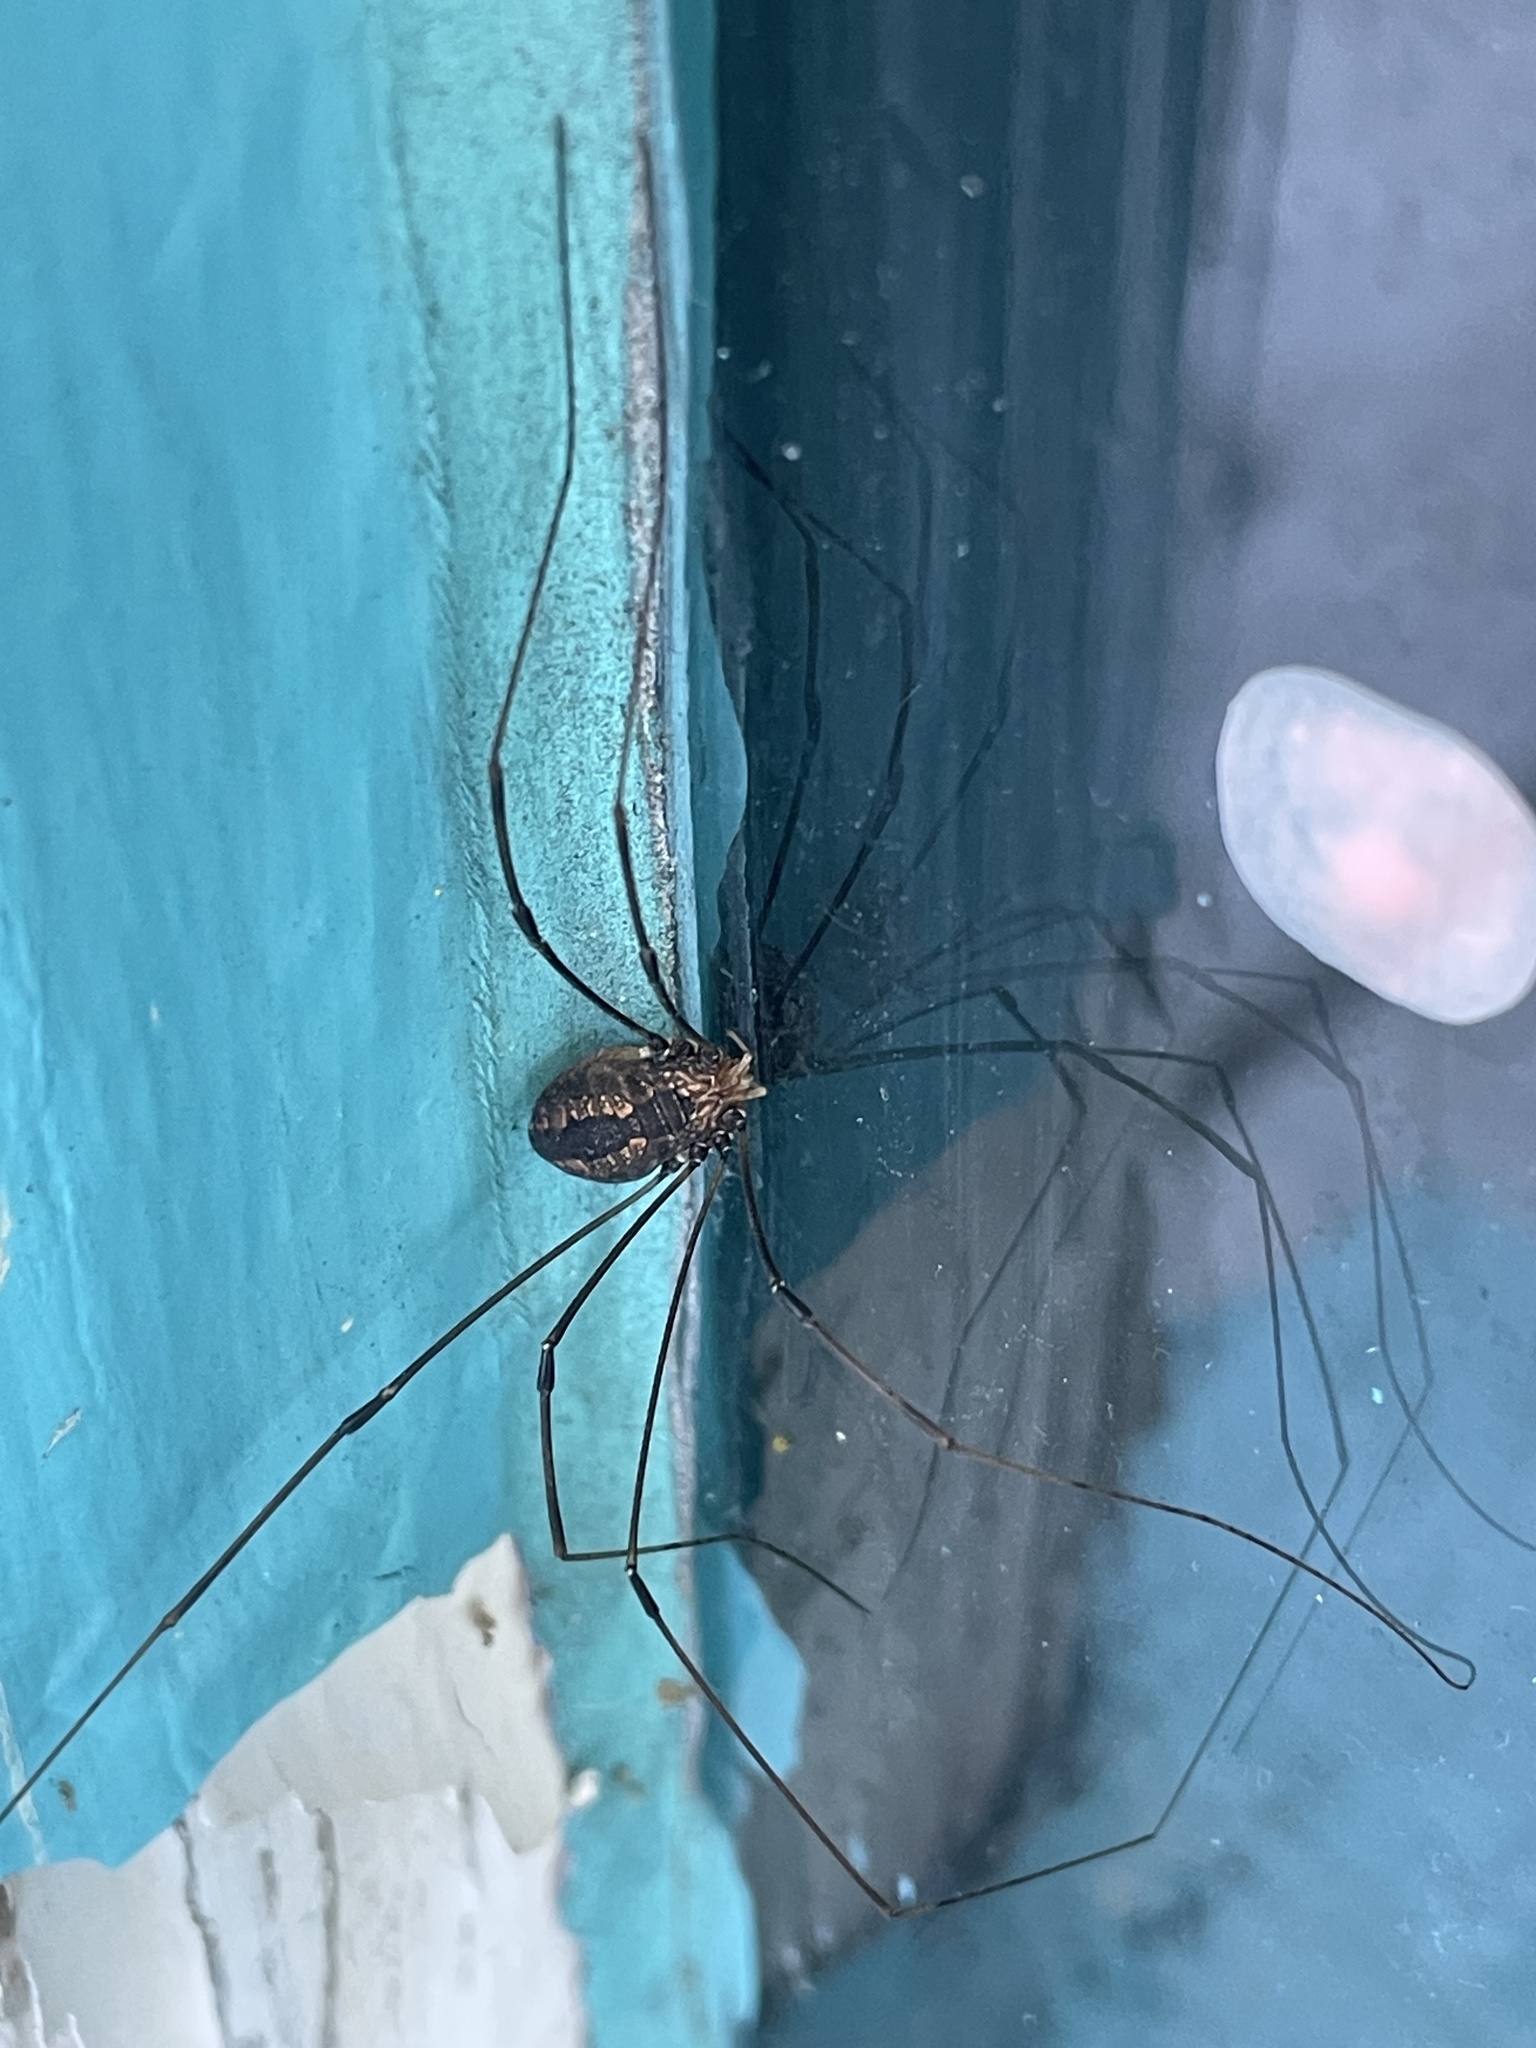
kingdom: Animalia
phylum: Arthropoda
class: Arachnida
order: Opiliones
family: Sclerosomatidae
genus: Leiobunum
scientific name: Leiobunum vittatum
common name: Eastern harvestman
